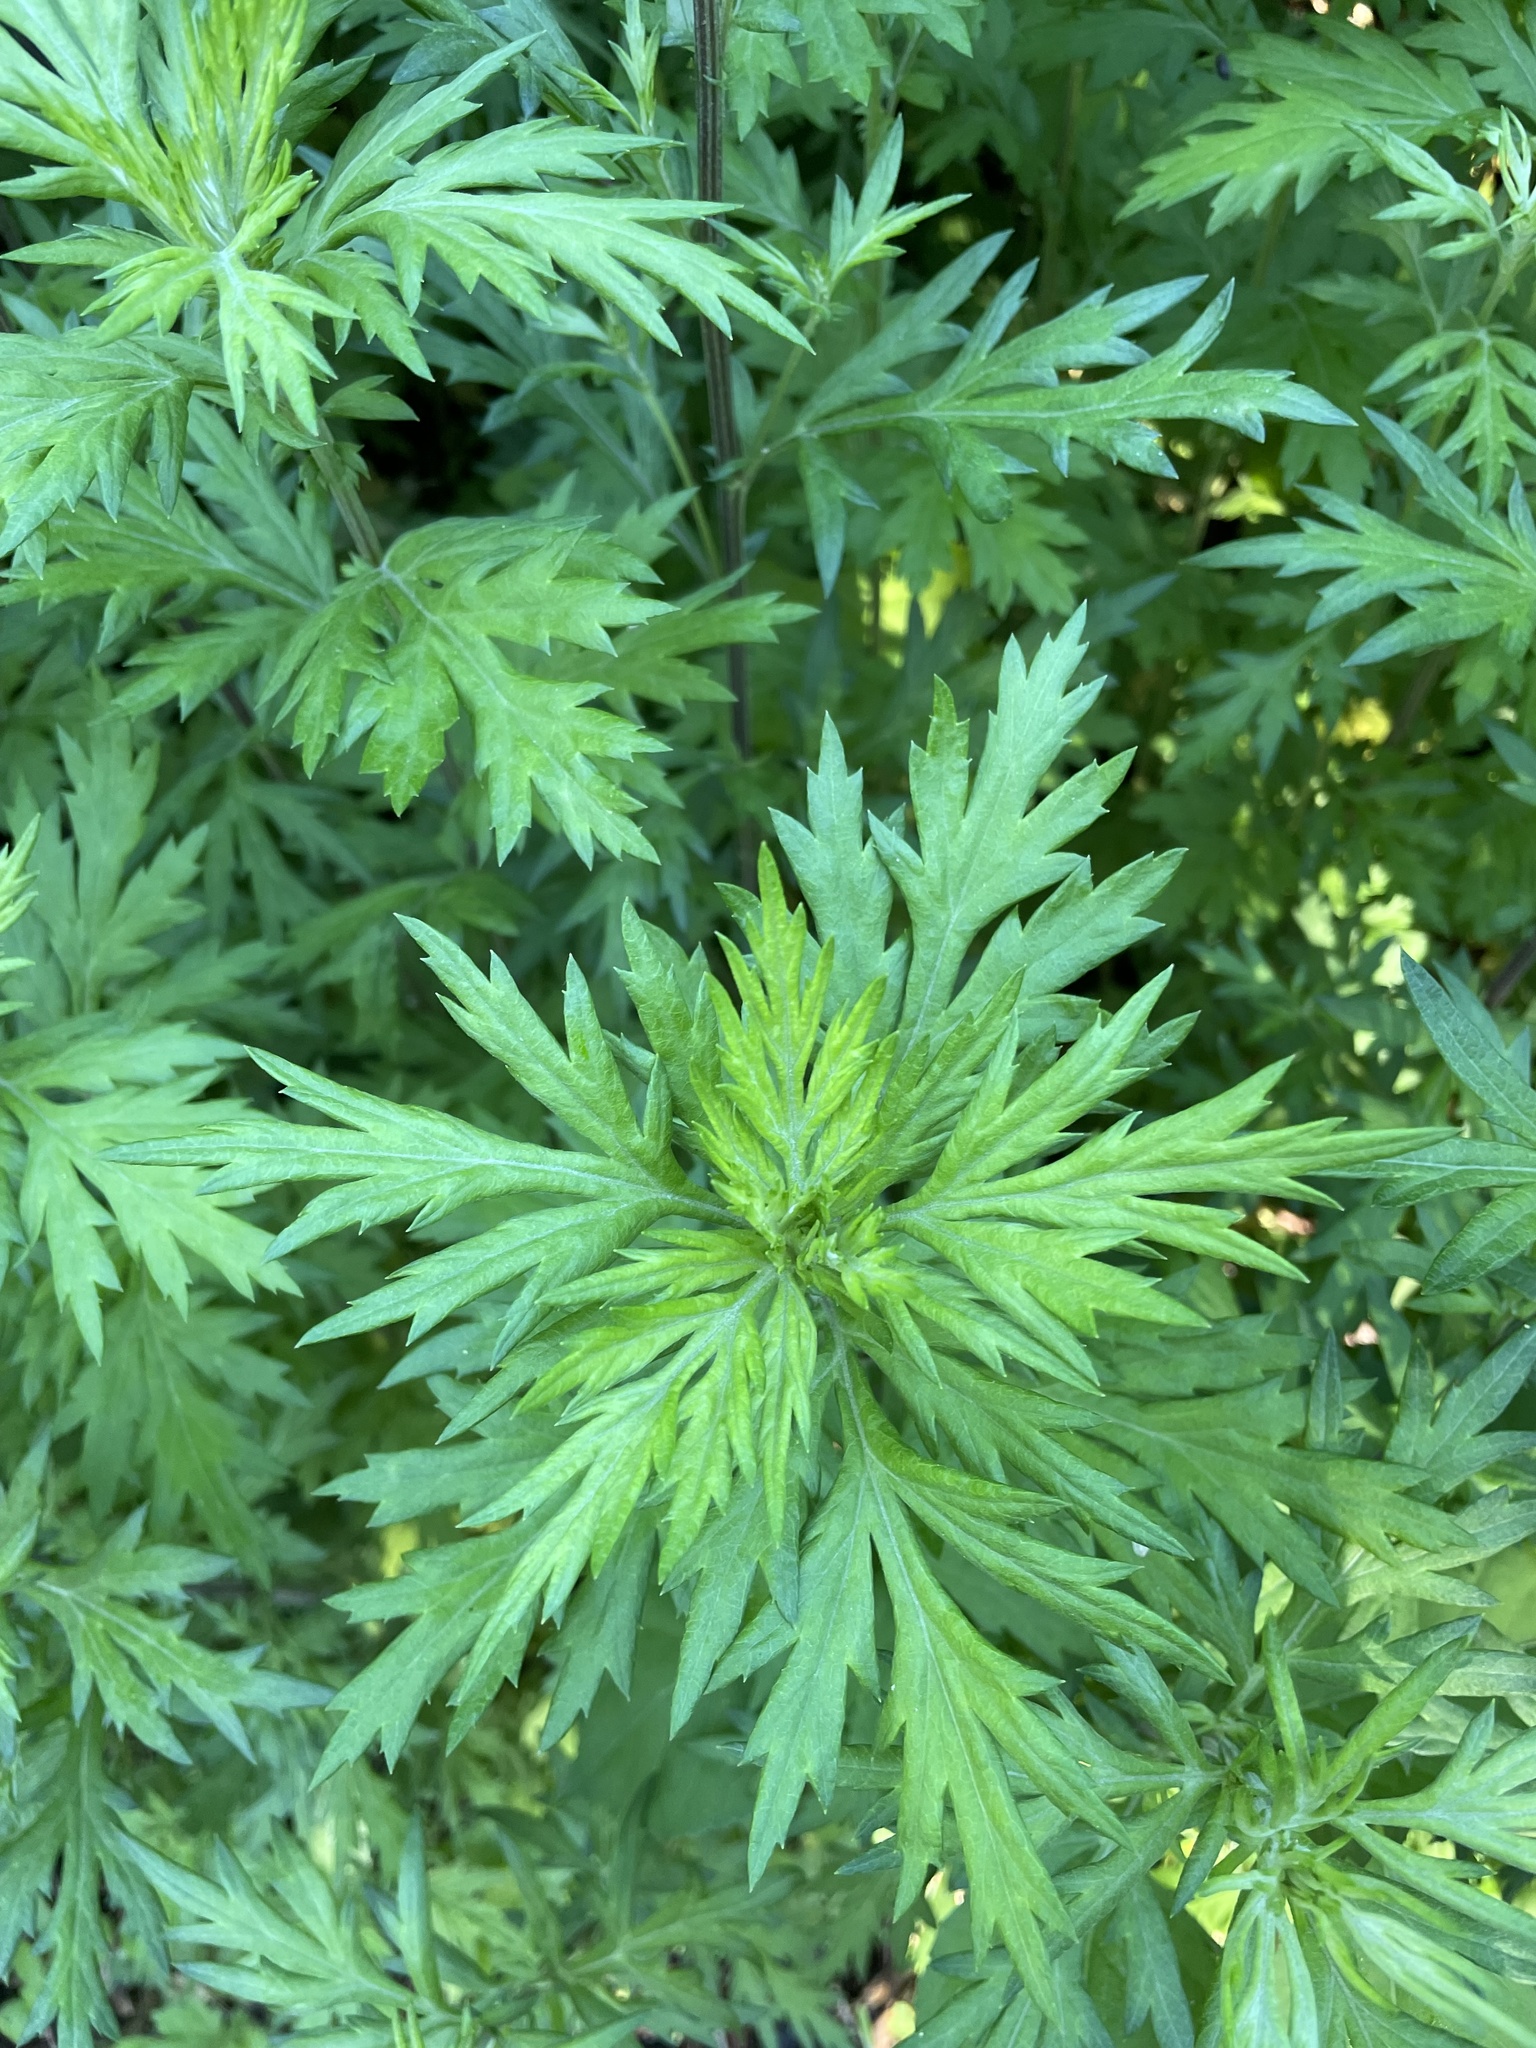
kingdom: Plantae
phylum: Tracheophyta
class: Magnoliopsida
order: Asterales
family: Asteraceae
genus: Artemisia
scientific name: Artemisia vulgaris
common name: Mugwort
